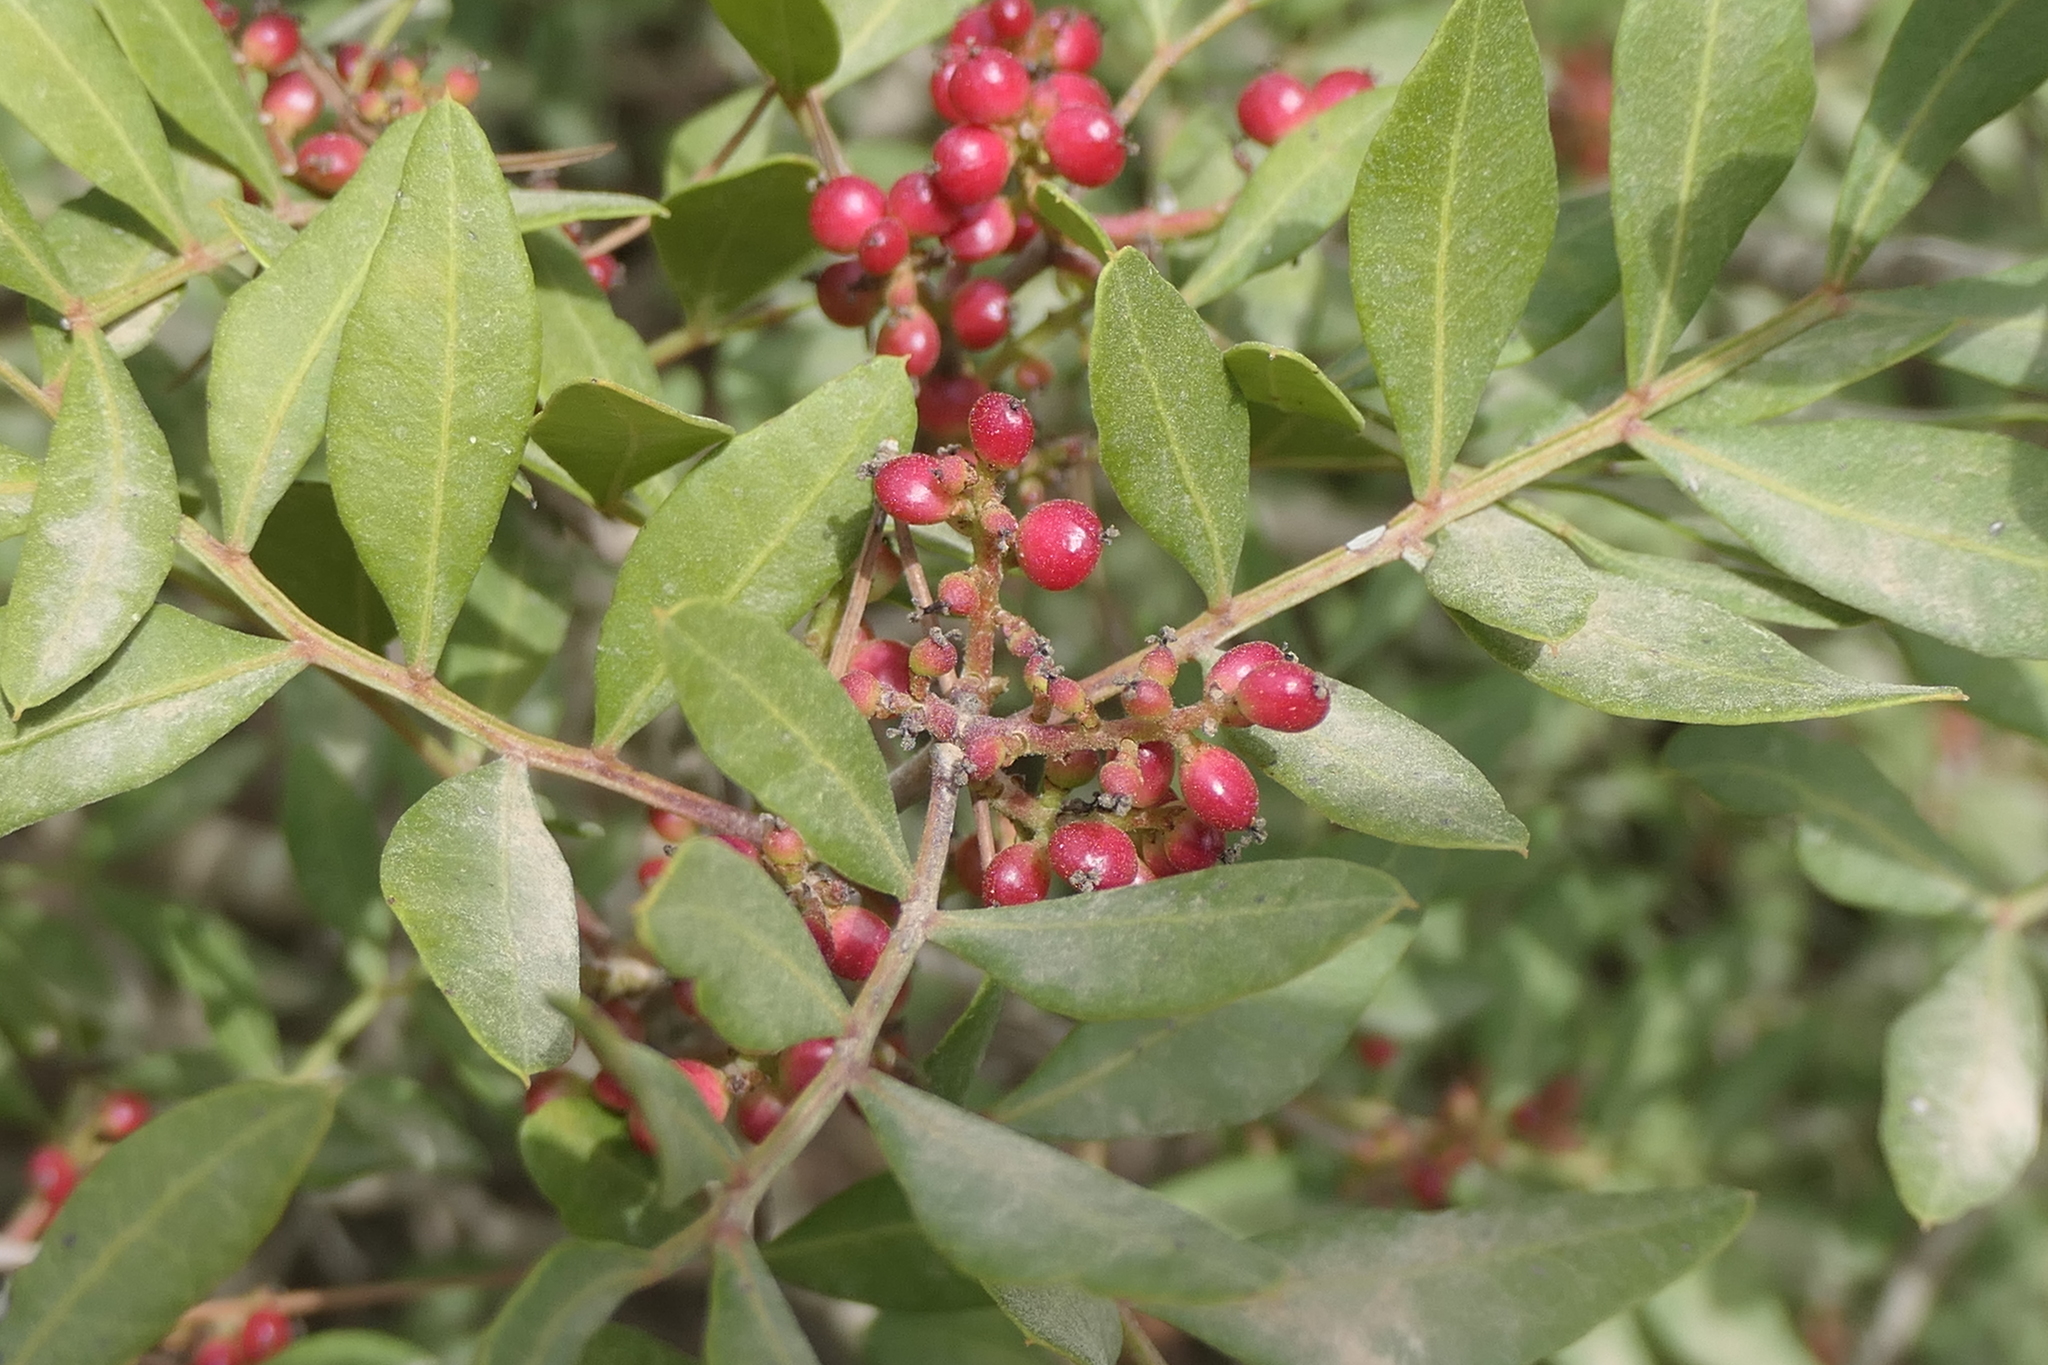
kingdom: Plantae
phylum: Tracheophyta
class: Magnoliopsida
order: Sapindales
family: Anacardiaceae
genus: Pistacia
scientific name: Pistacia lentiscus
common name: Lentisk
